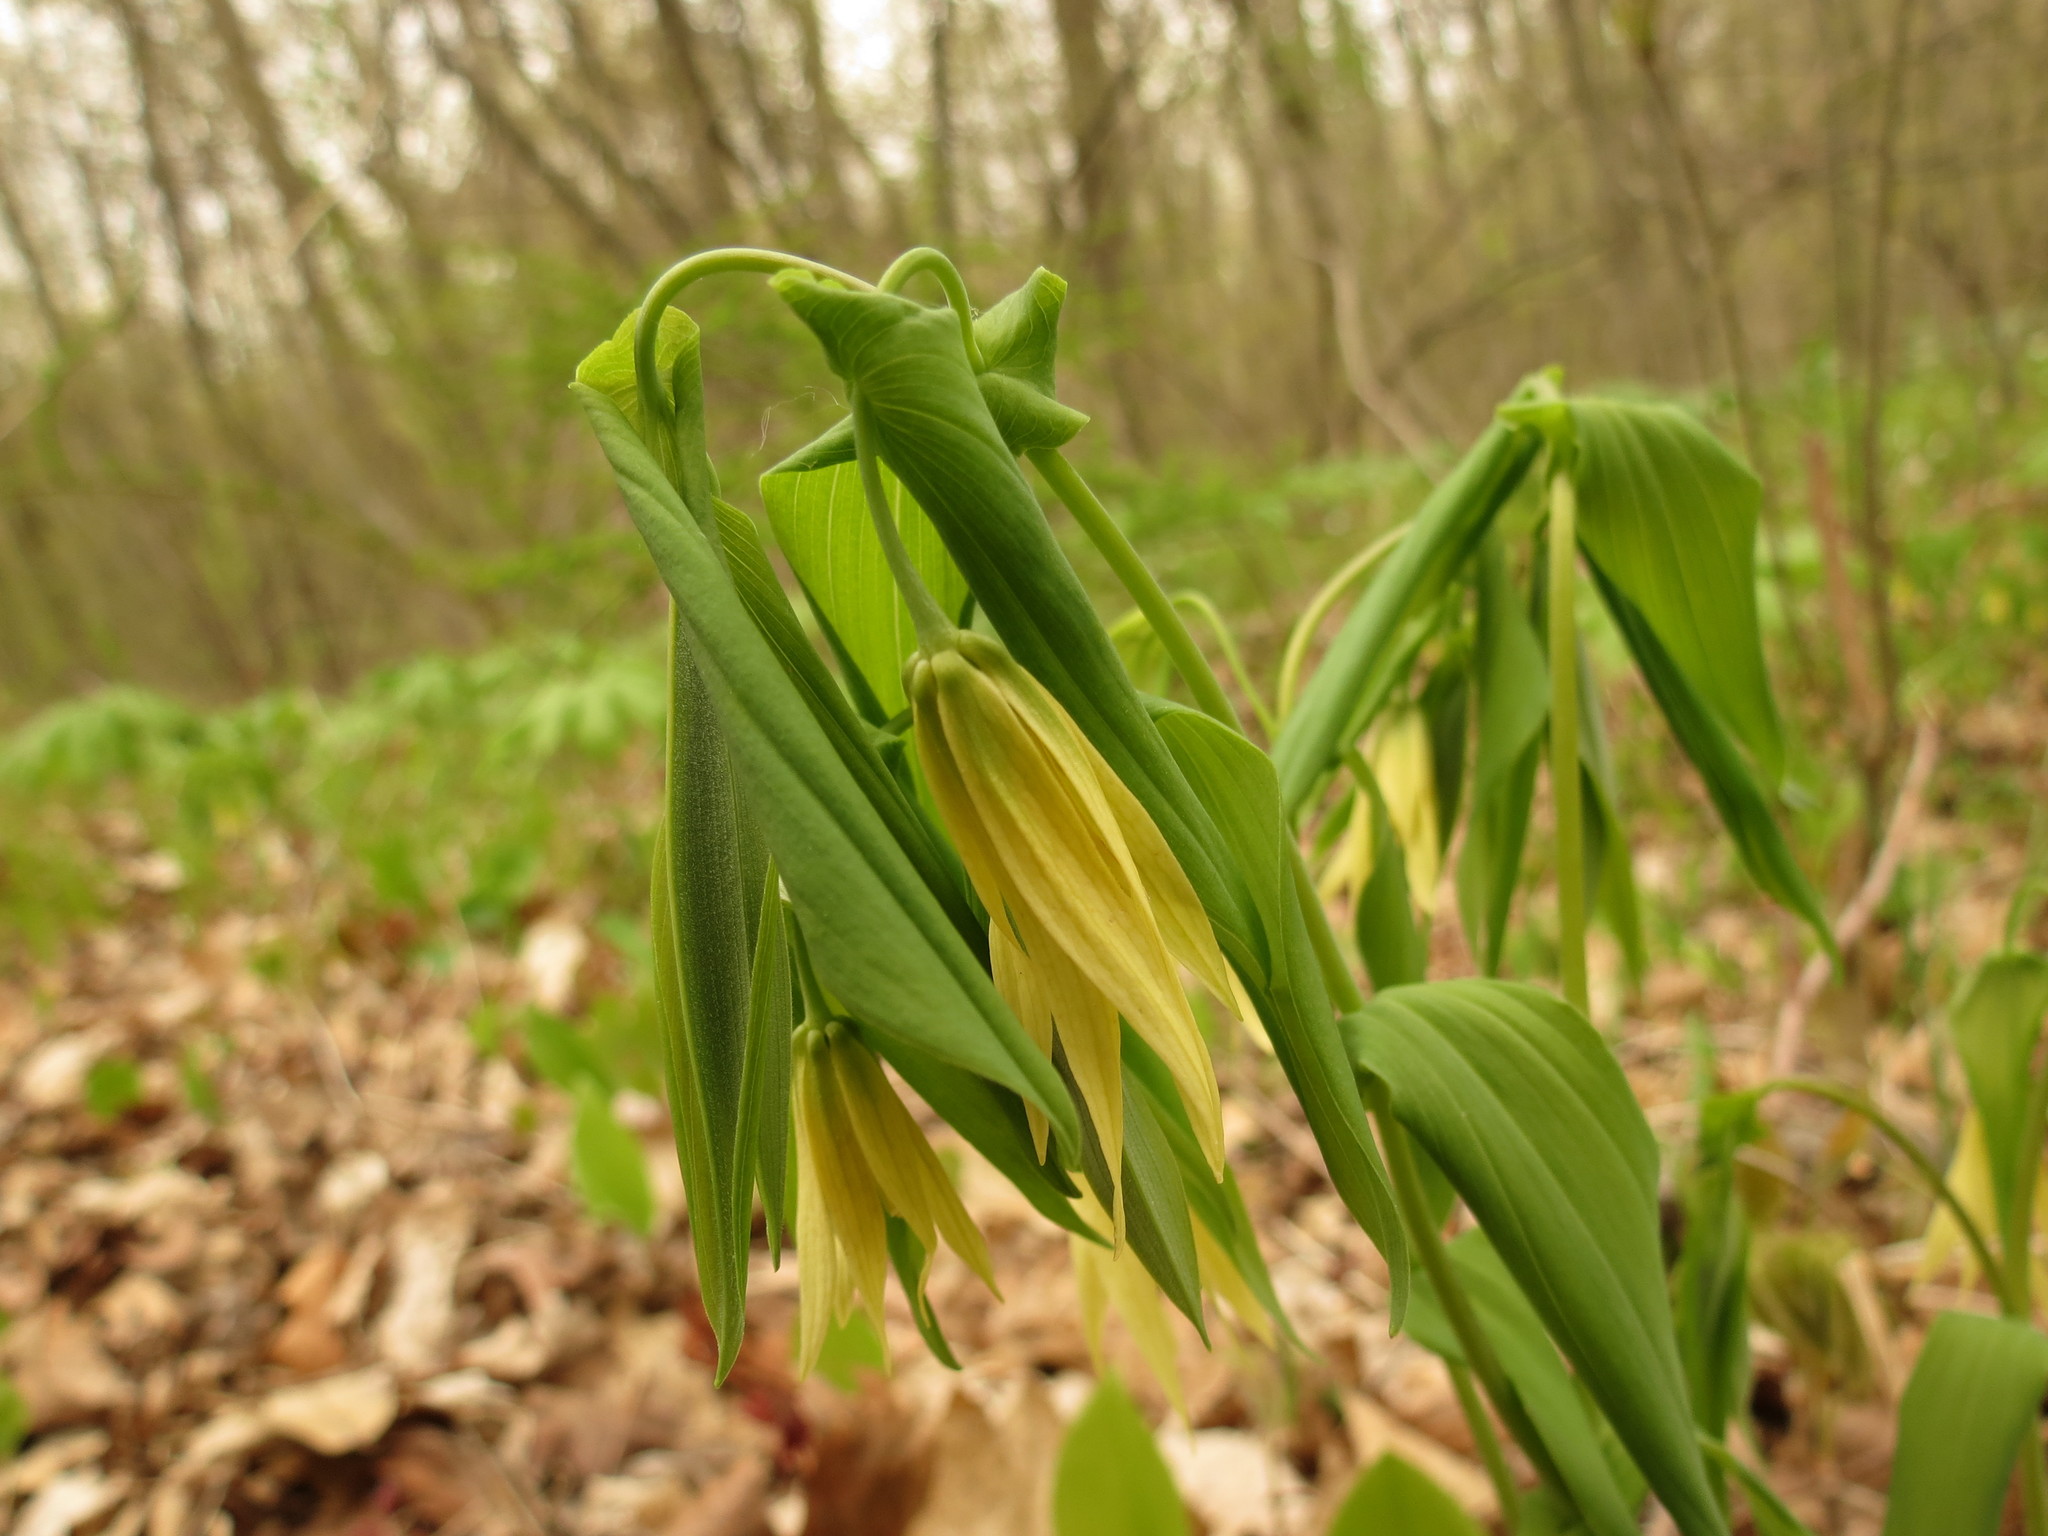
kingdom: Plantae
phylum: Tracheophyta
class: Liliopsida
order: Liliales
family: Colchicaceae
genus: Uvularia
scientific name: Uvularia grandiflora
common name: Bellwort
